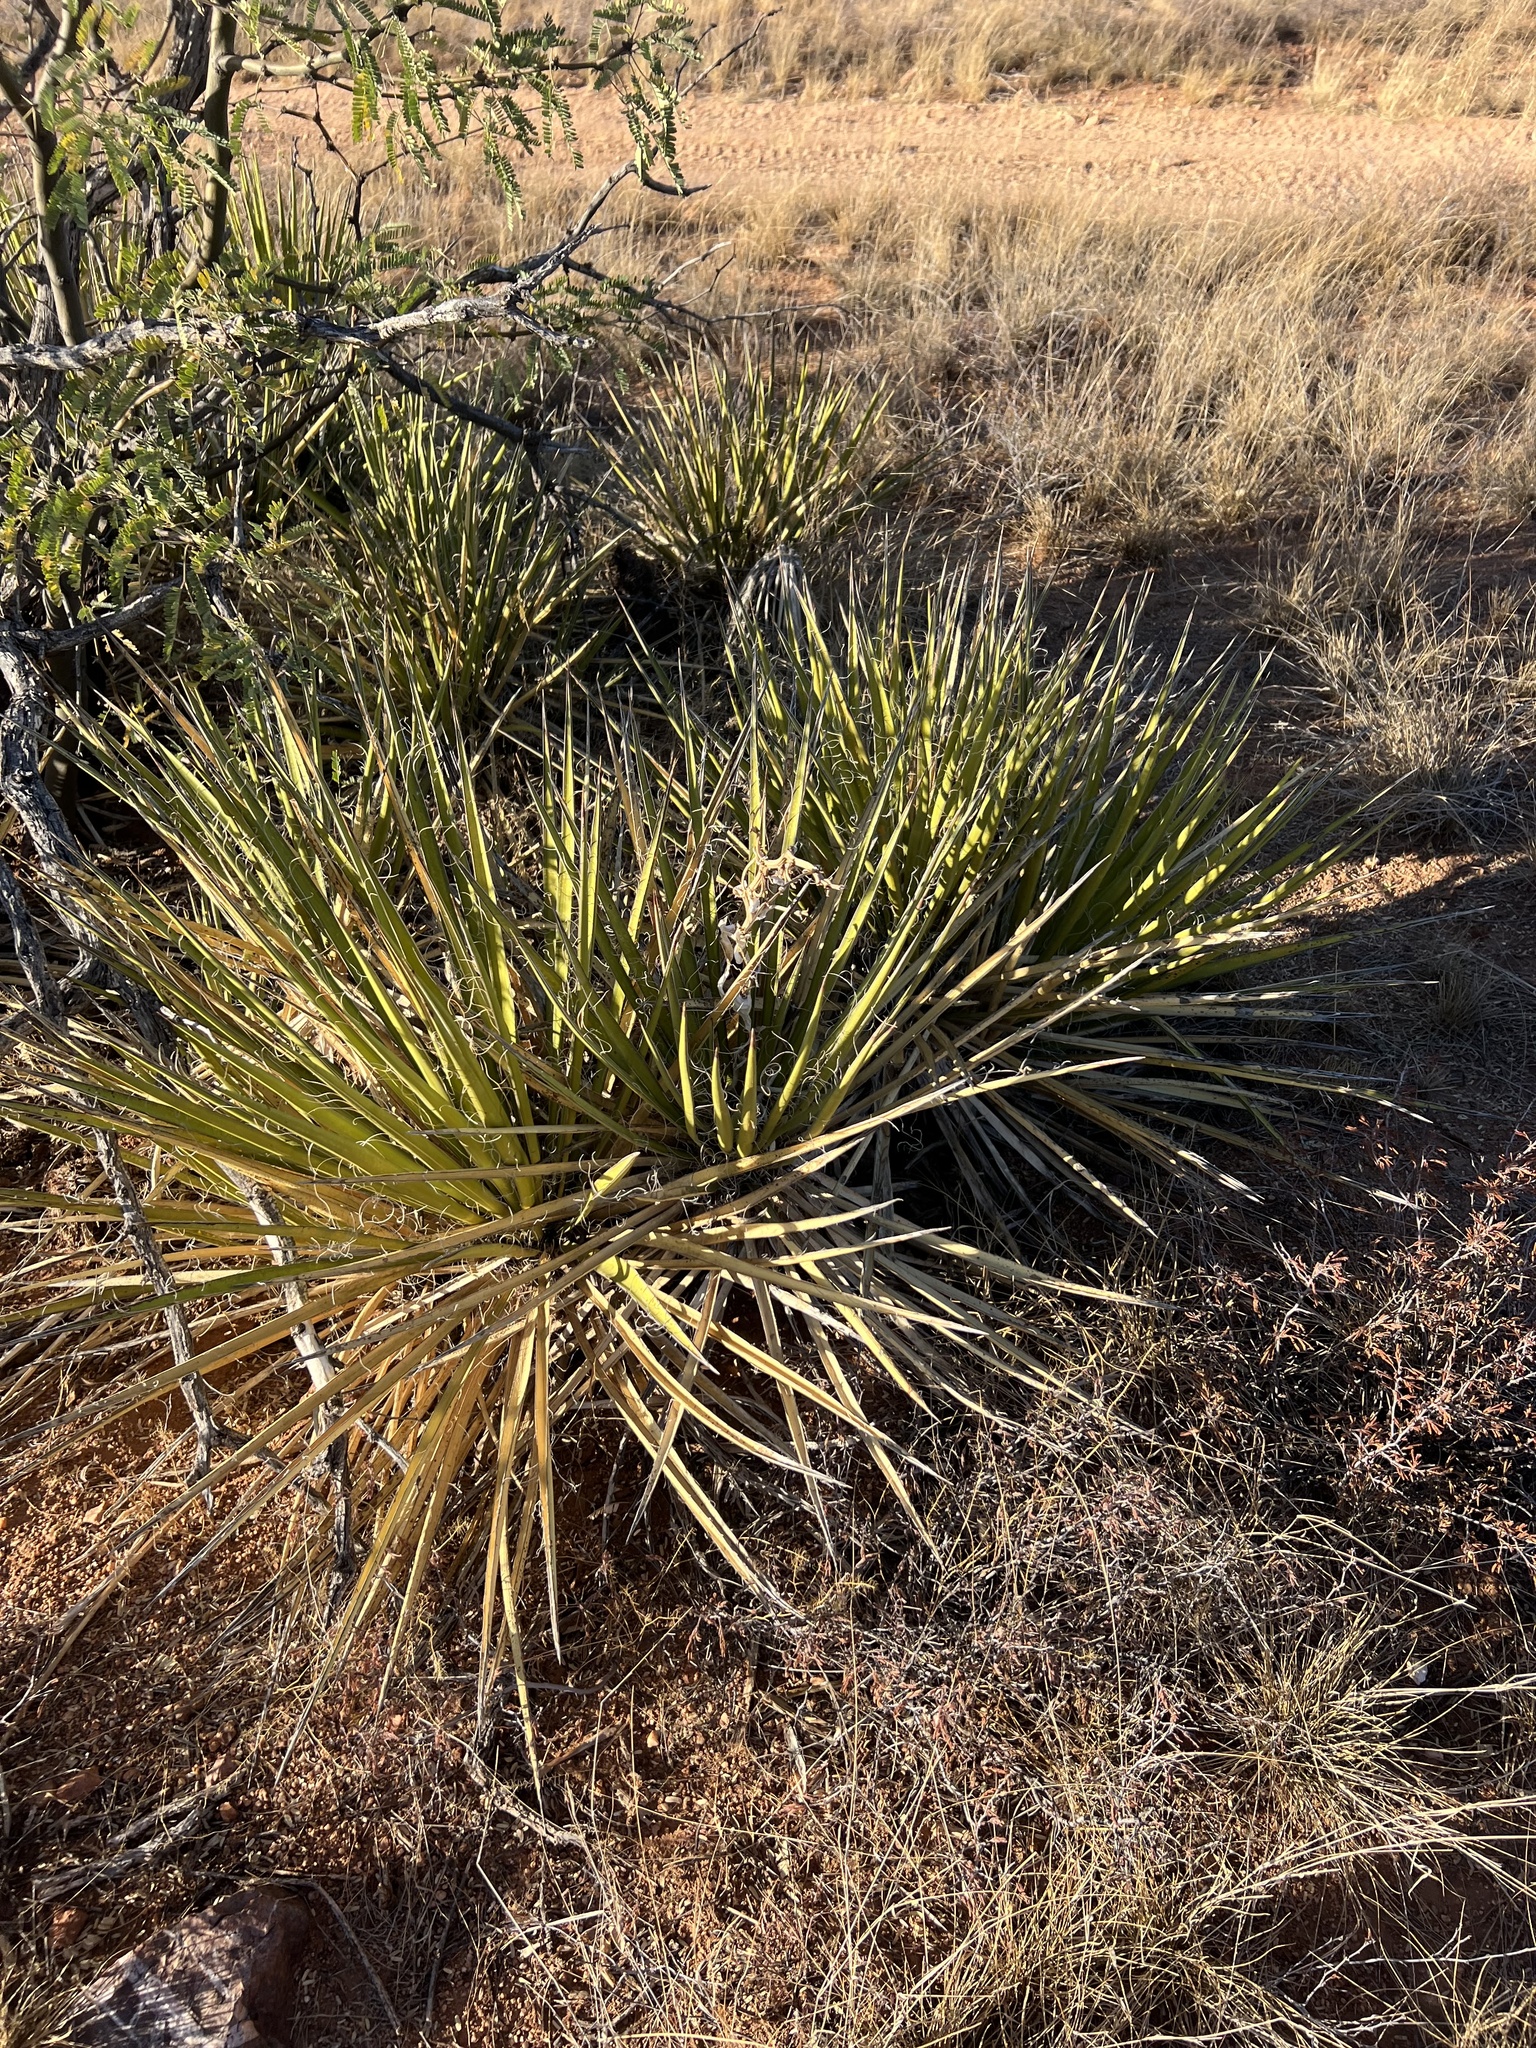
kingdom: Plantae
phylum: Tracheophyta
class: Liliopsida
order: Asparagales
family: Asparagaceae
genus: Yucca
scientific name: Yucca baccata
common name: Banana yucca
